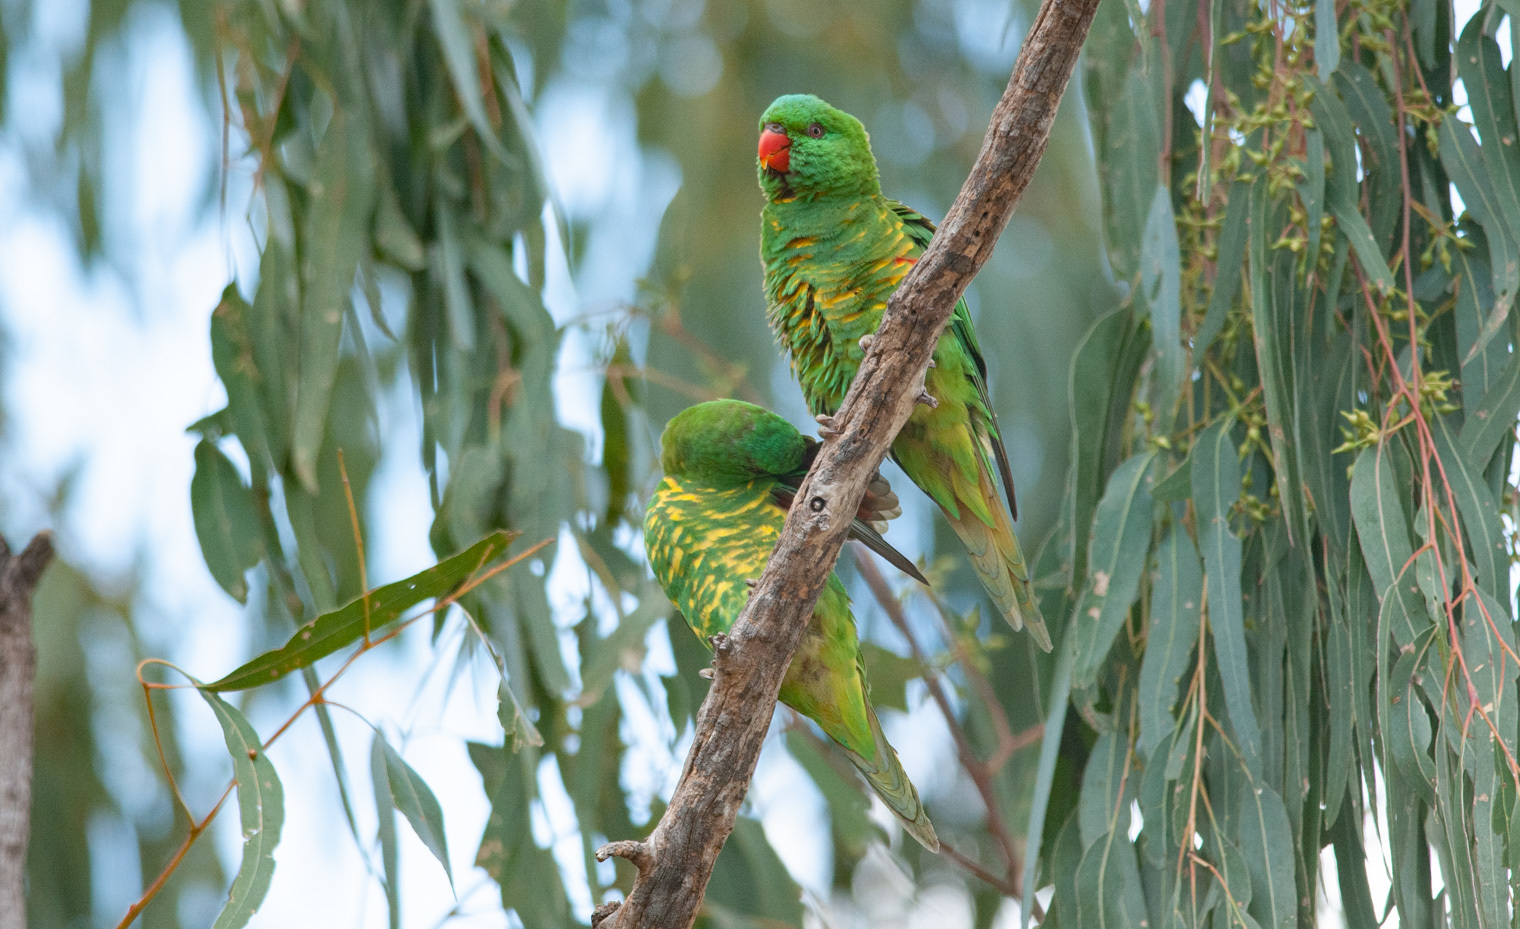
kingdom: Animalia
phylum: Chordata
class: Aves
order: Psittaciformes
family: Psittacidae
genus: Trichoglossus
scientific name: Trichoglossus chlorolepidotus
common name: Scaly-breasted lorikeet
